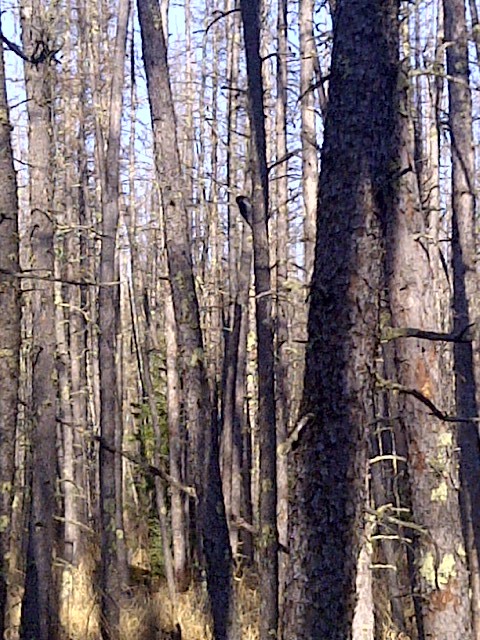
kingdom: Animalia
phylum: Chordata
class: Aves
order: Piciformes
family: Picidae
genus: Picoides
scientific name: Picoides arcticus
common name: Black-backed woodpecker
